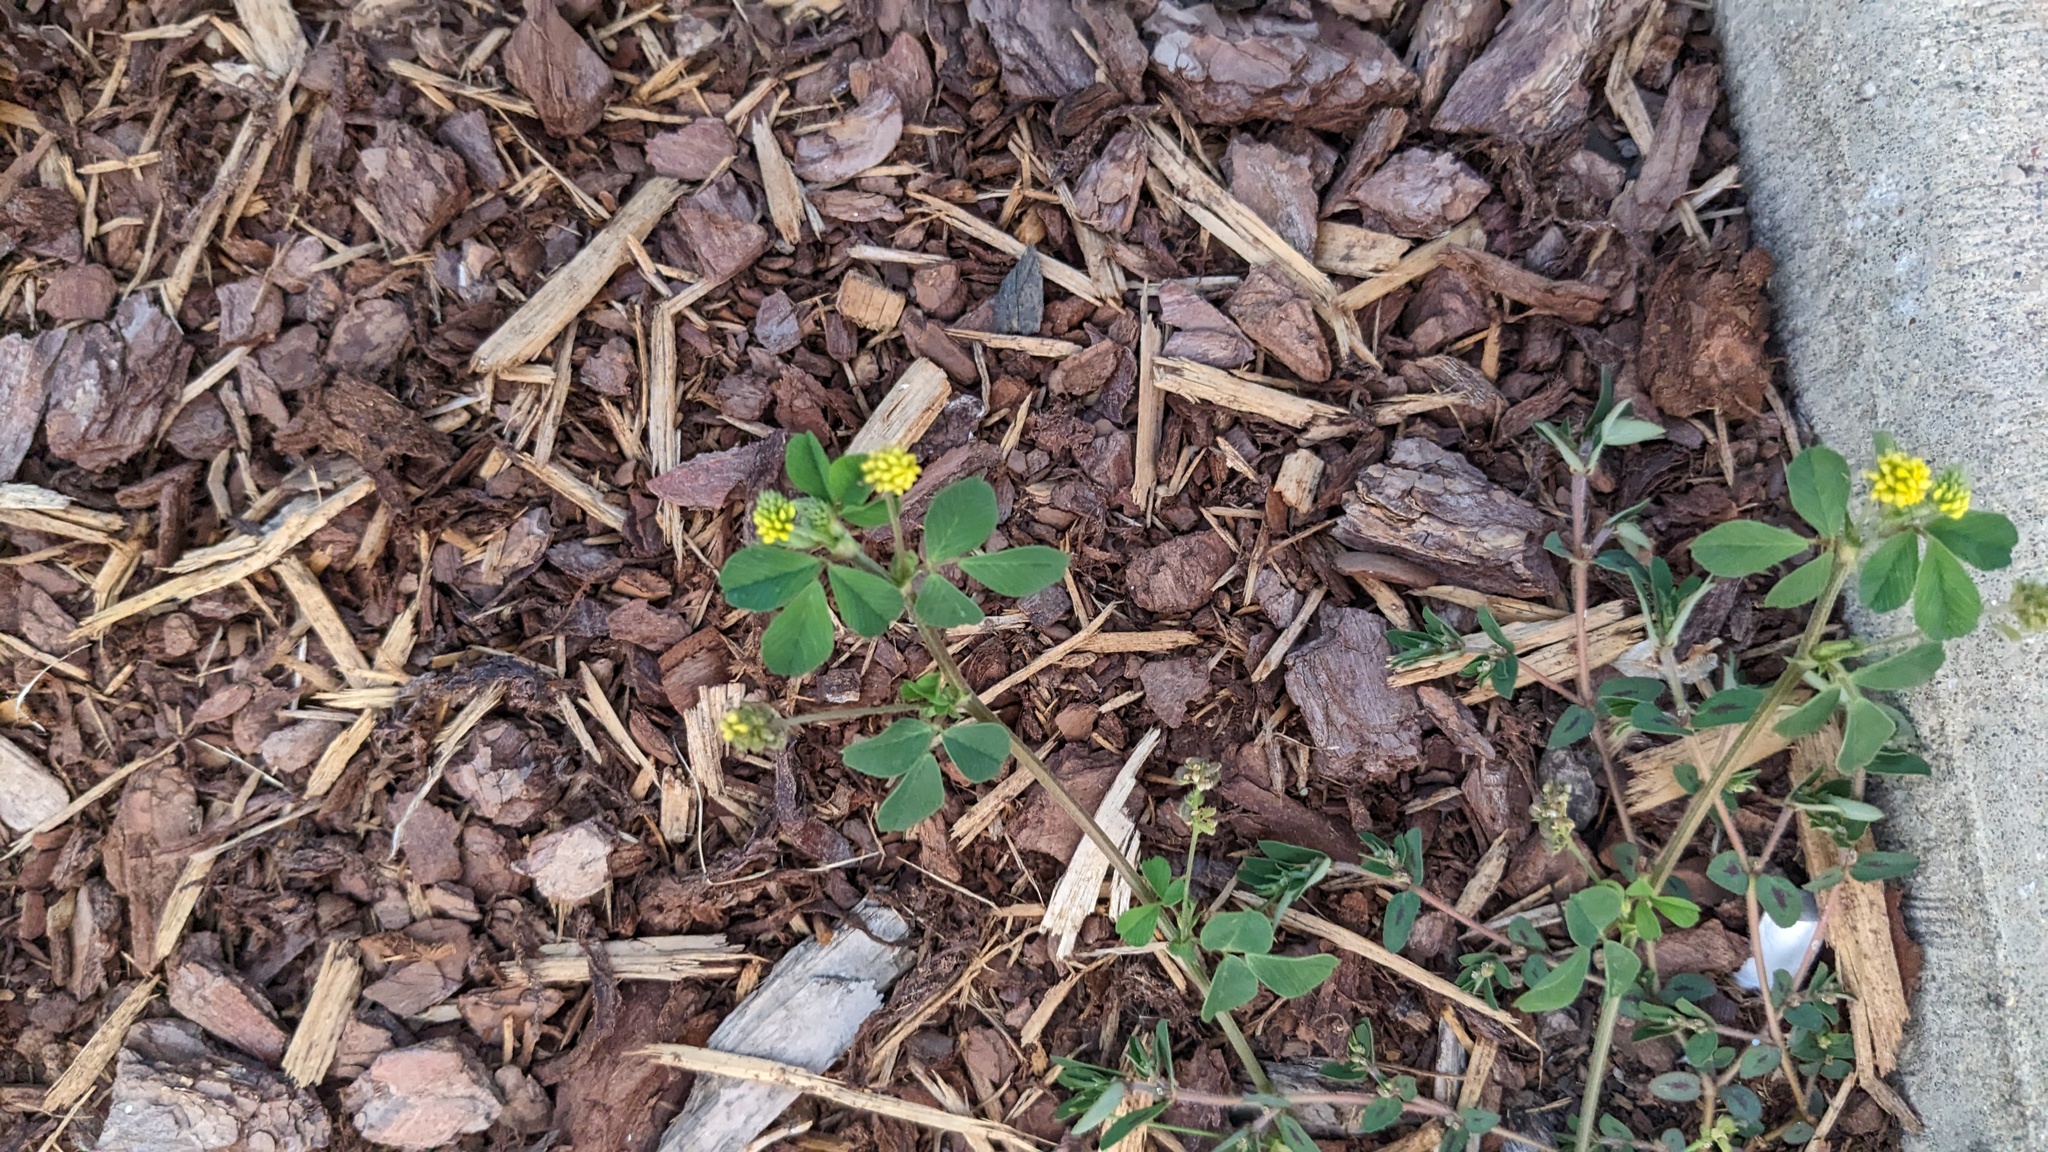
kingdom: Plantae
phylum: Tracheophyta
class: Magnoliopsida
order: Fabales
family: Fabaceae
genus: Medicago
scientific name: Medicago lupulina
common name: Black medick
